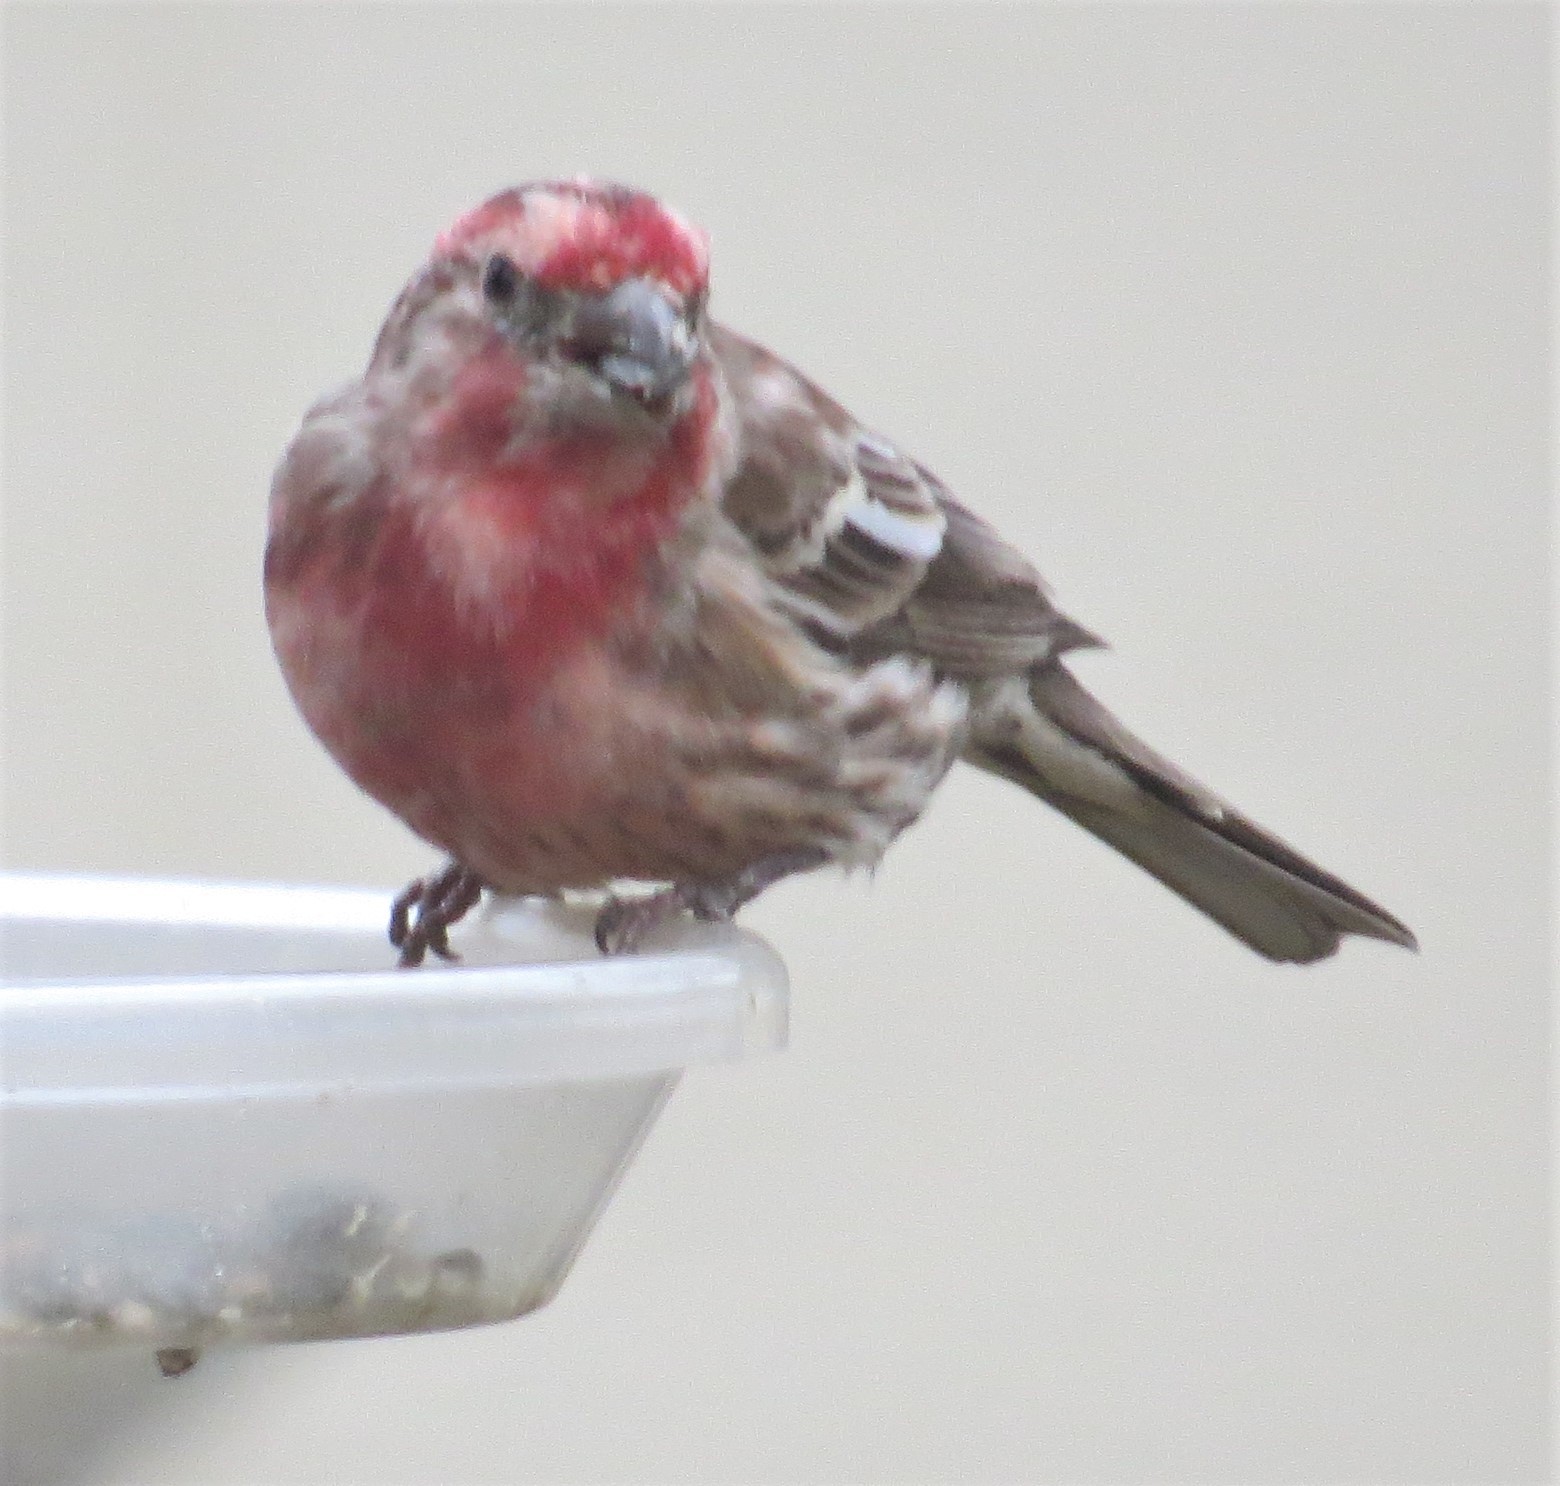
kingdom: Animalia
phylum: Chordata
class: Aves
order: Passeriformes
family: Fringillidae
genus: Haemorhous
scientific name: Haemorhous mexicanus
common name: House finch
